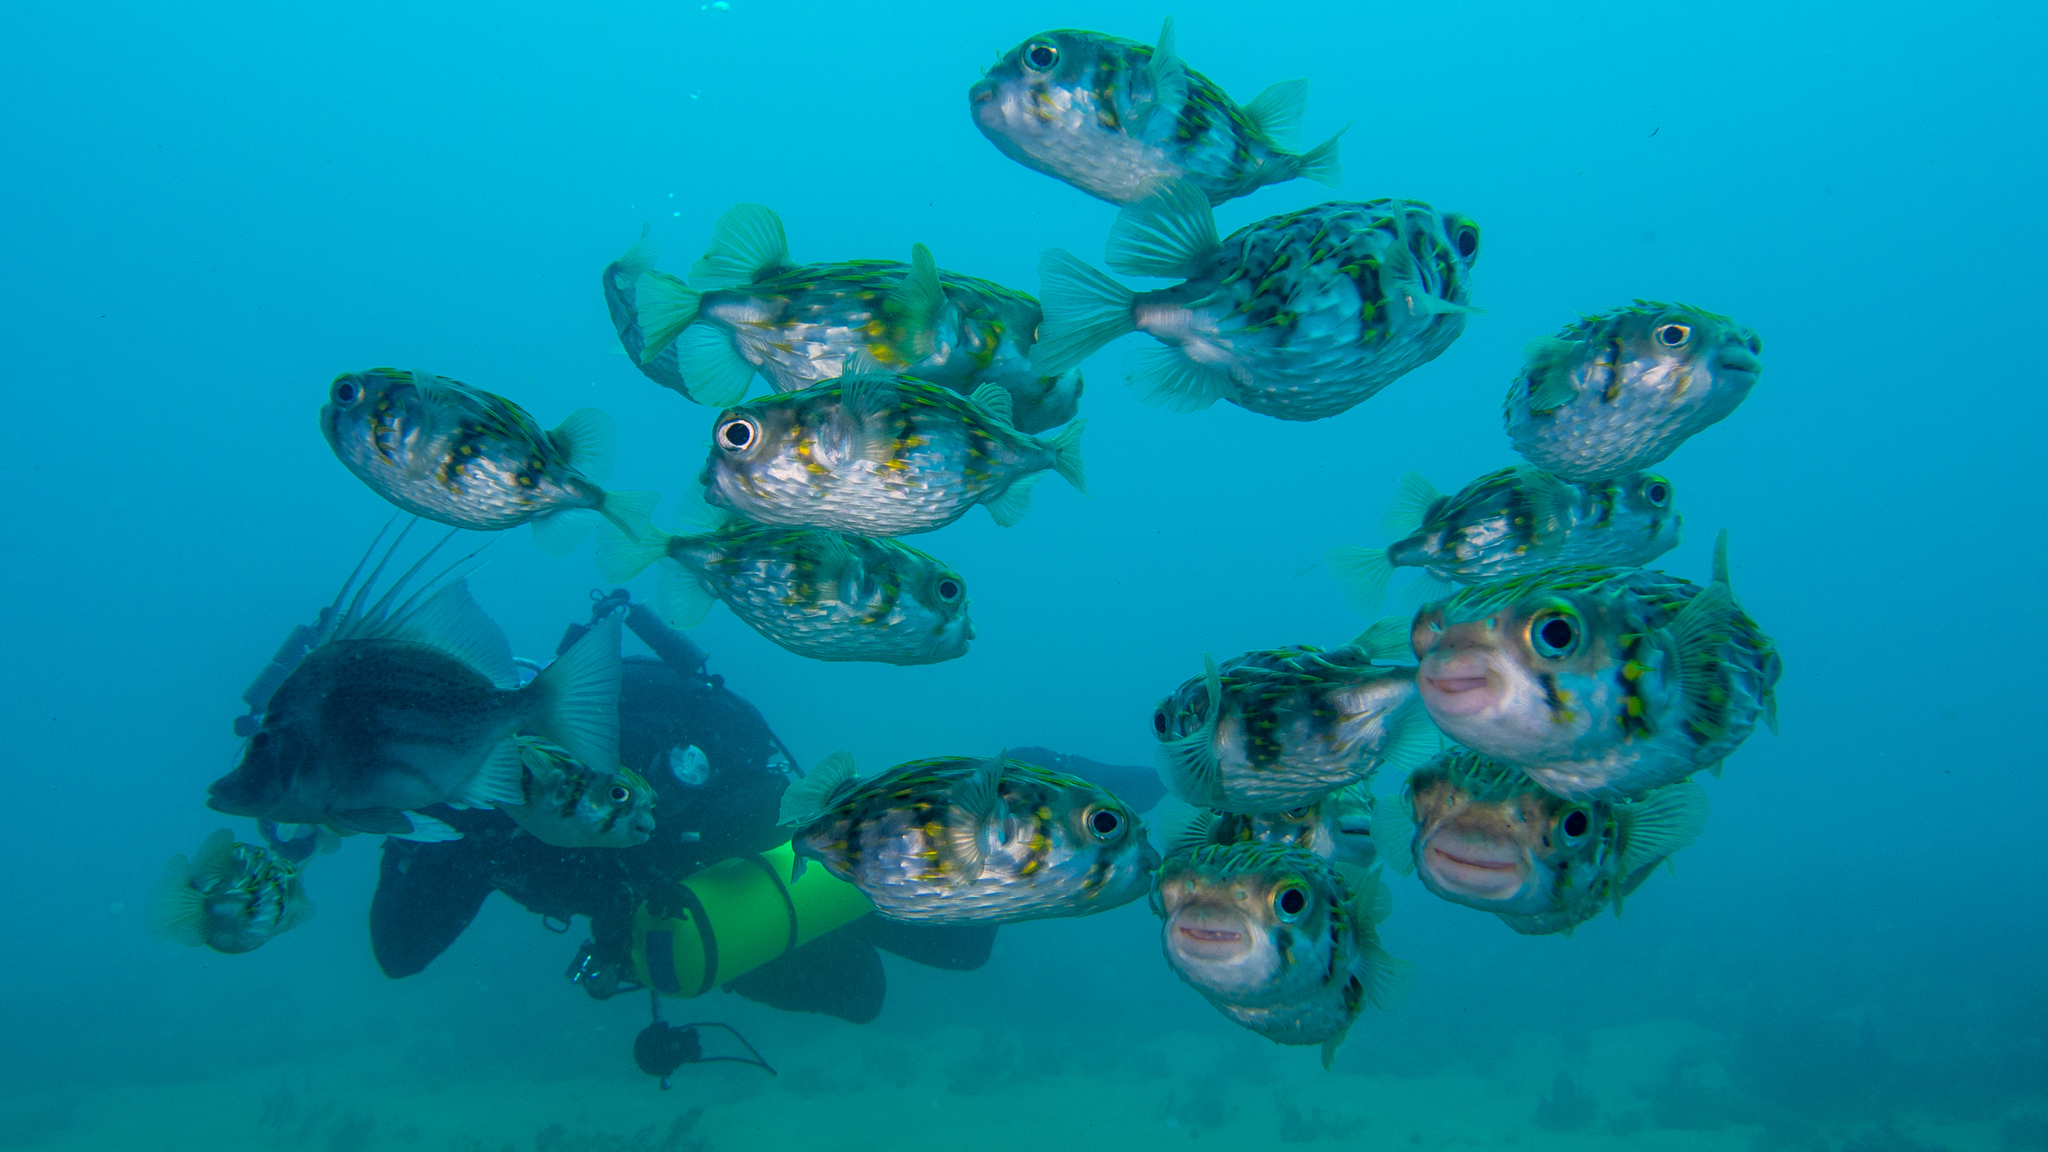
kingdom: Animalia
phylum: Chordata
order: Tetraodontiformes
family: Diodontidae
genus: Diodon
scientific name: Diodon nicthemerus
